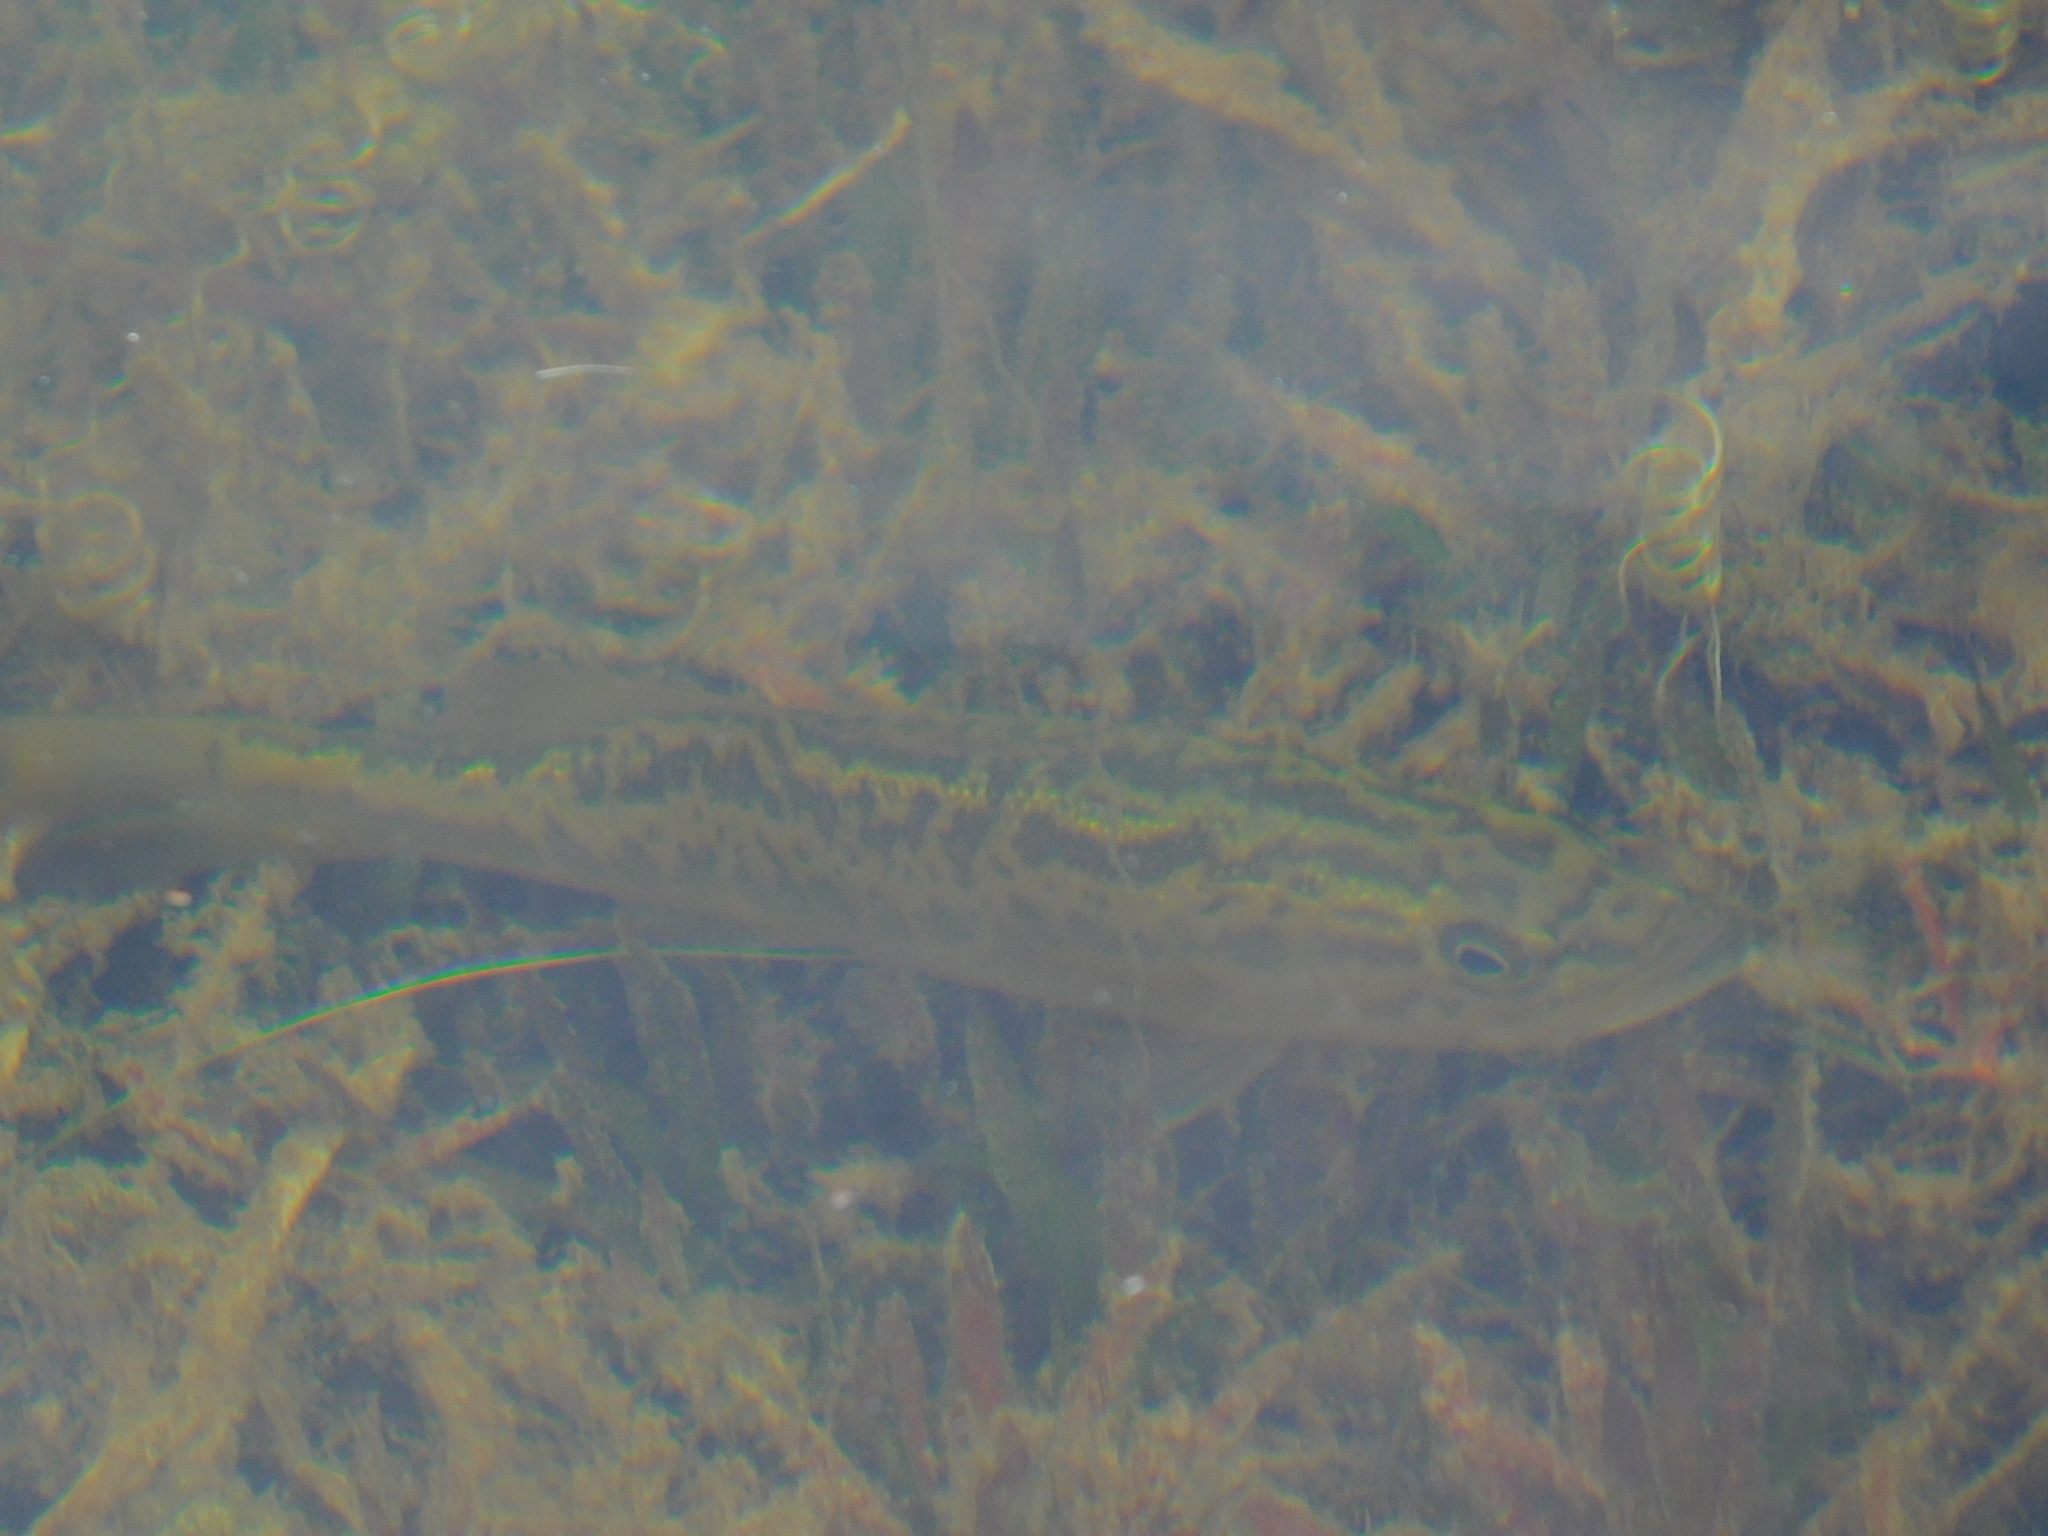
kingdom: Animalia
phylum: Chordata
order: Perciformes
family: Centrarchidae
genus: Micropterus
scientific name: Micropterus salmoides
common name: Largemouth bass
